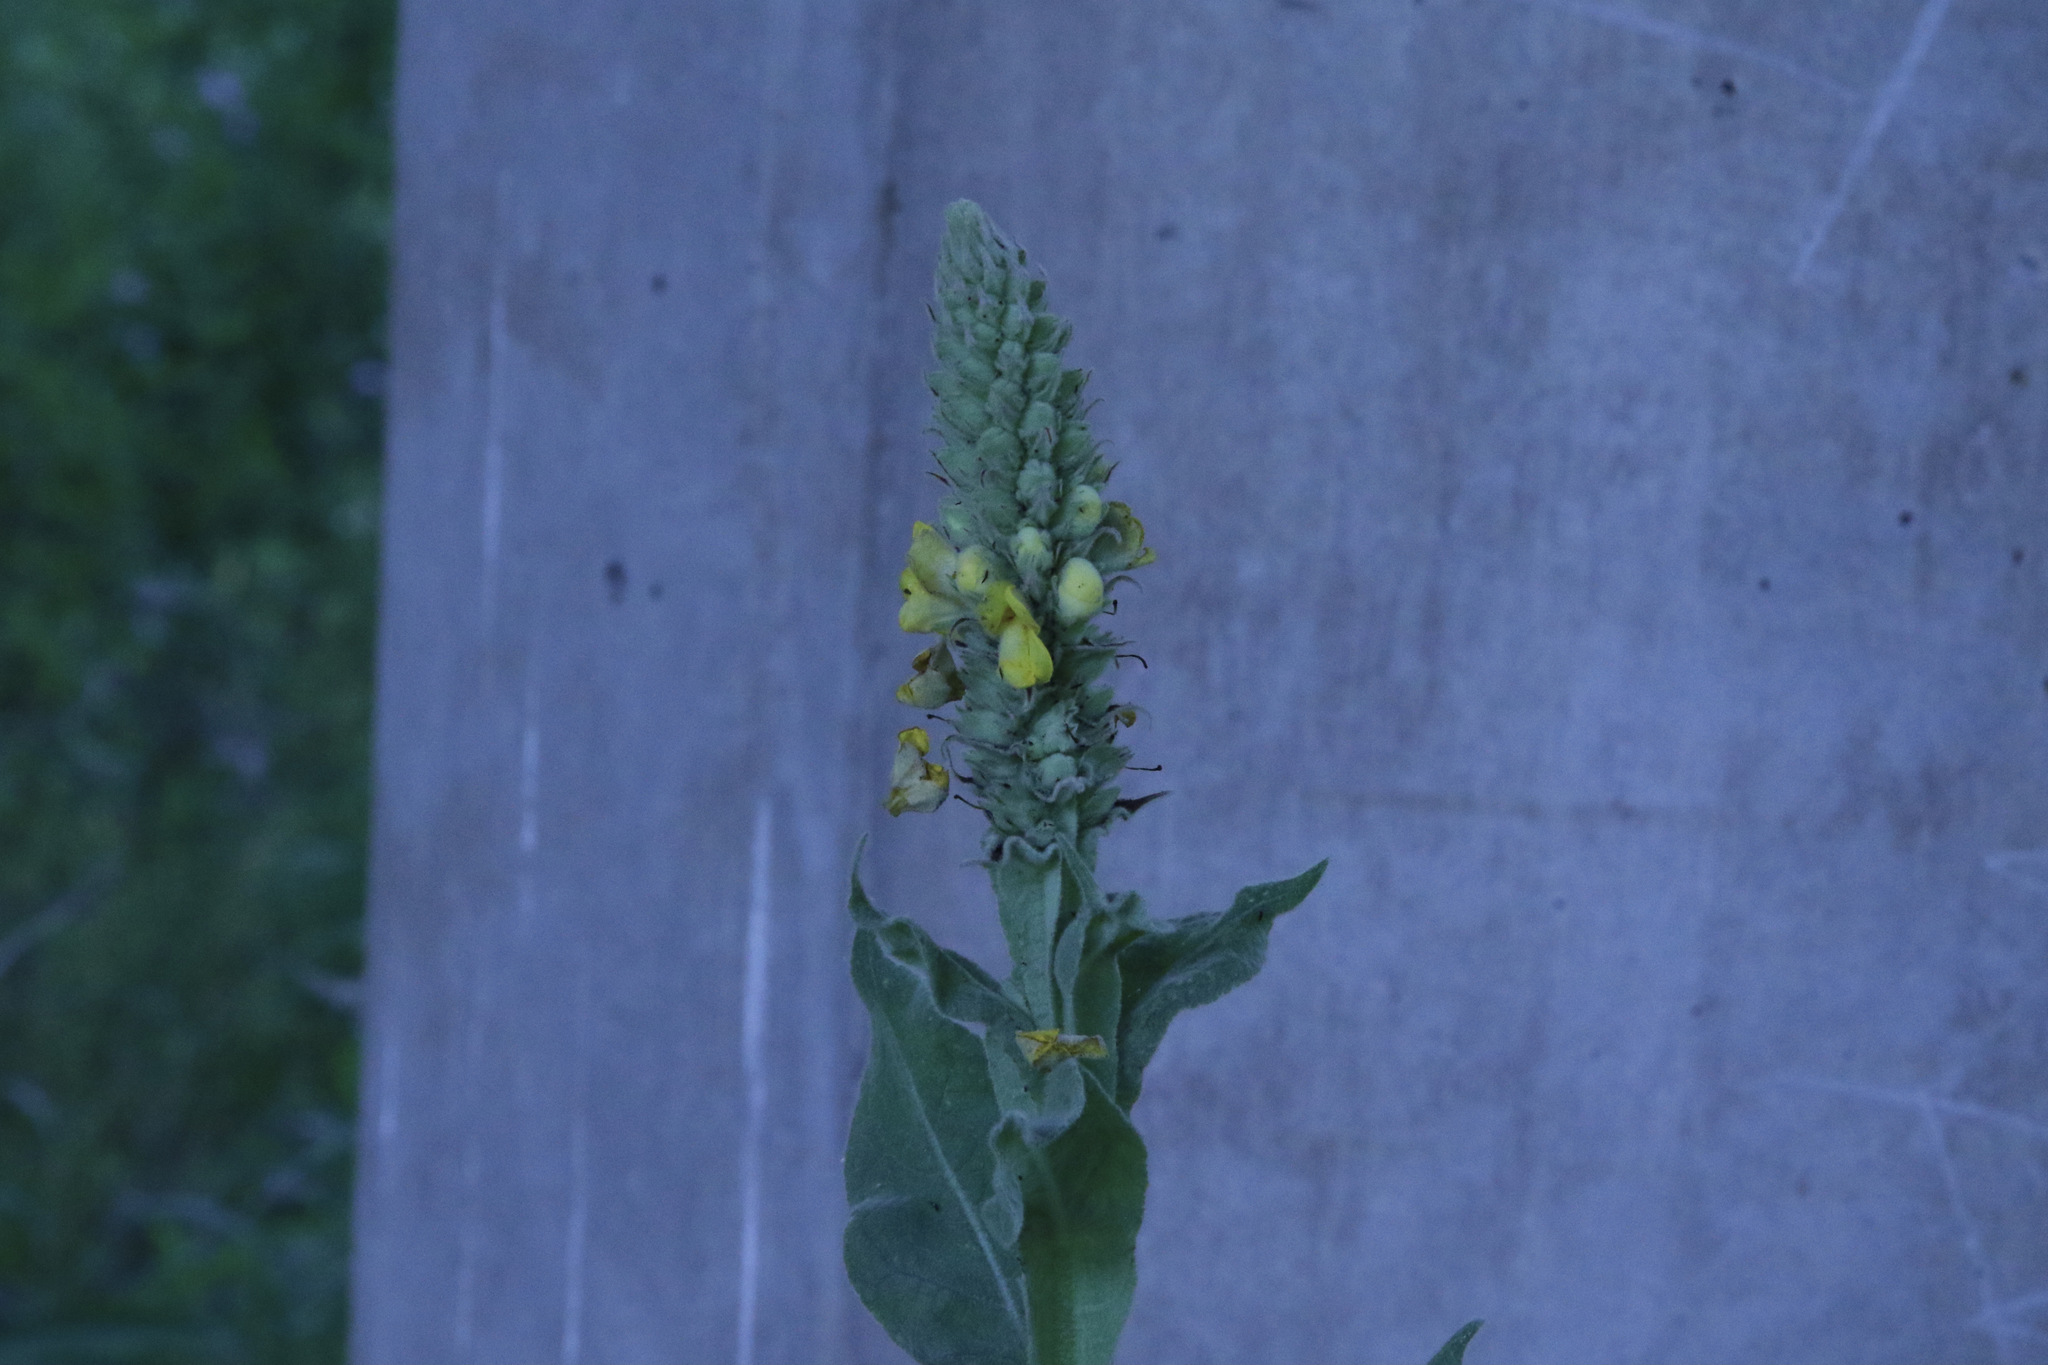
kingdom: Plantae
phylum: Tracheophyta
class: Magnoliopsida
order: Lamiales
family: Scrophulariaceae
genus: Verbascum
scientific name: Verbascum thapsus
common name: Common mullein
